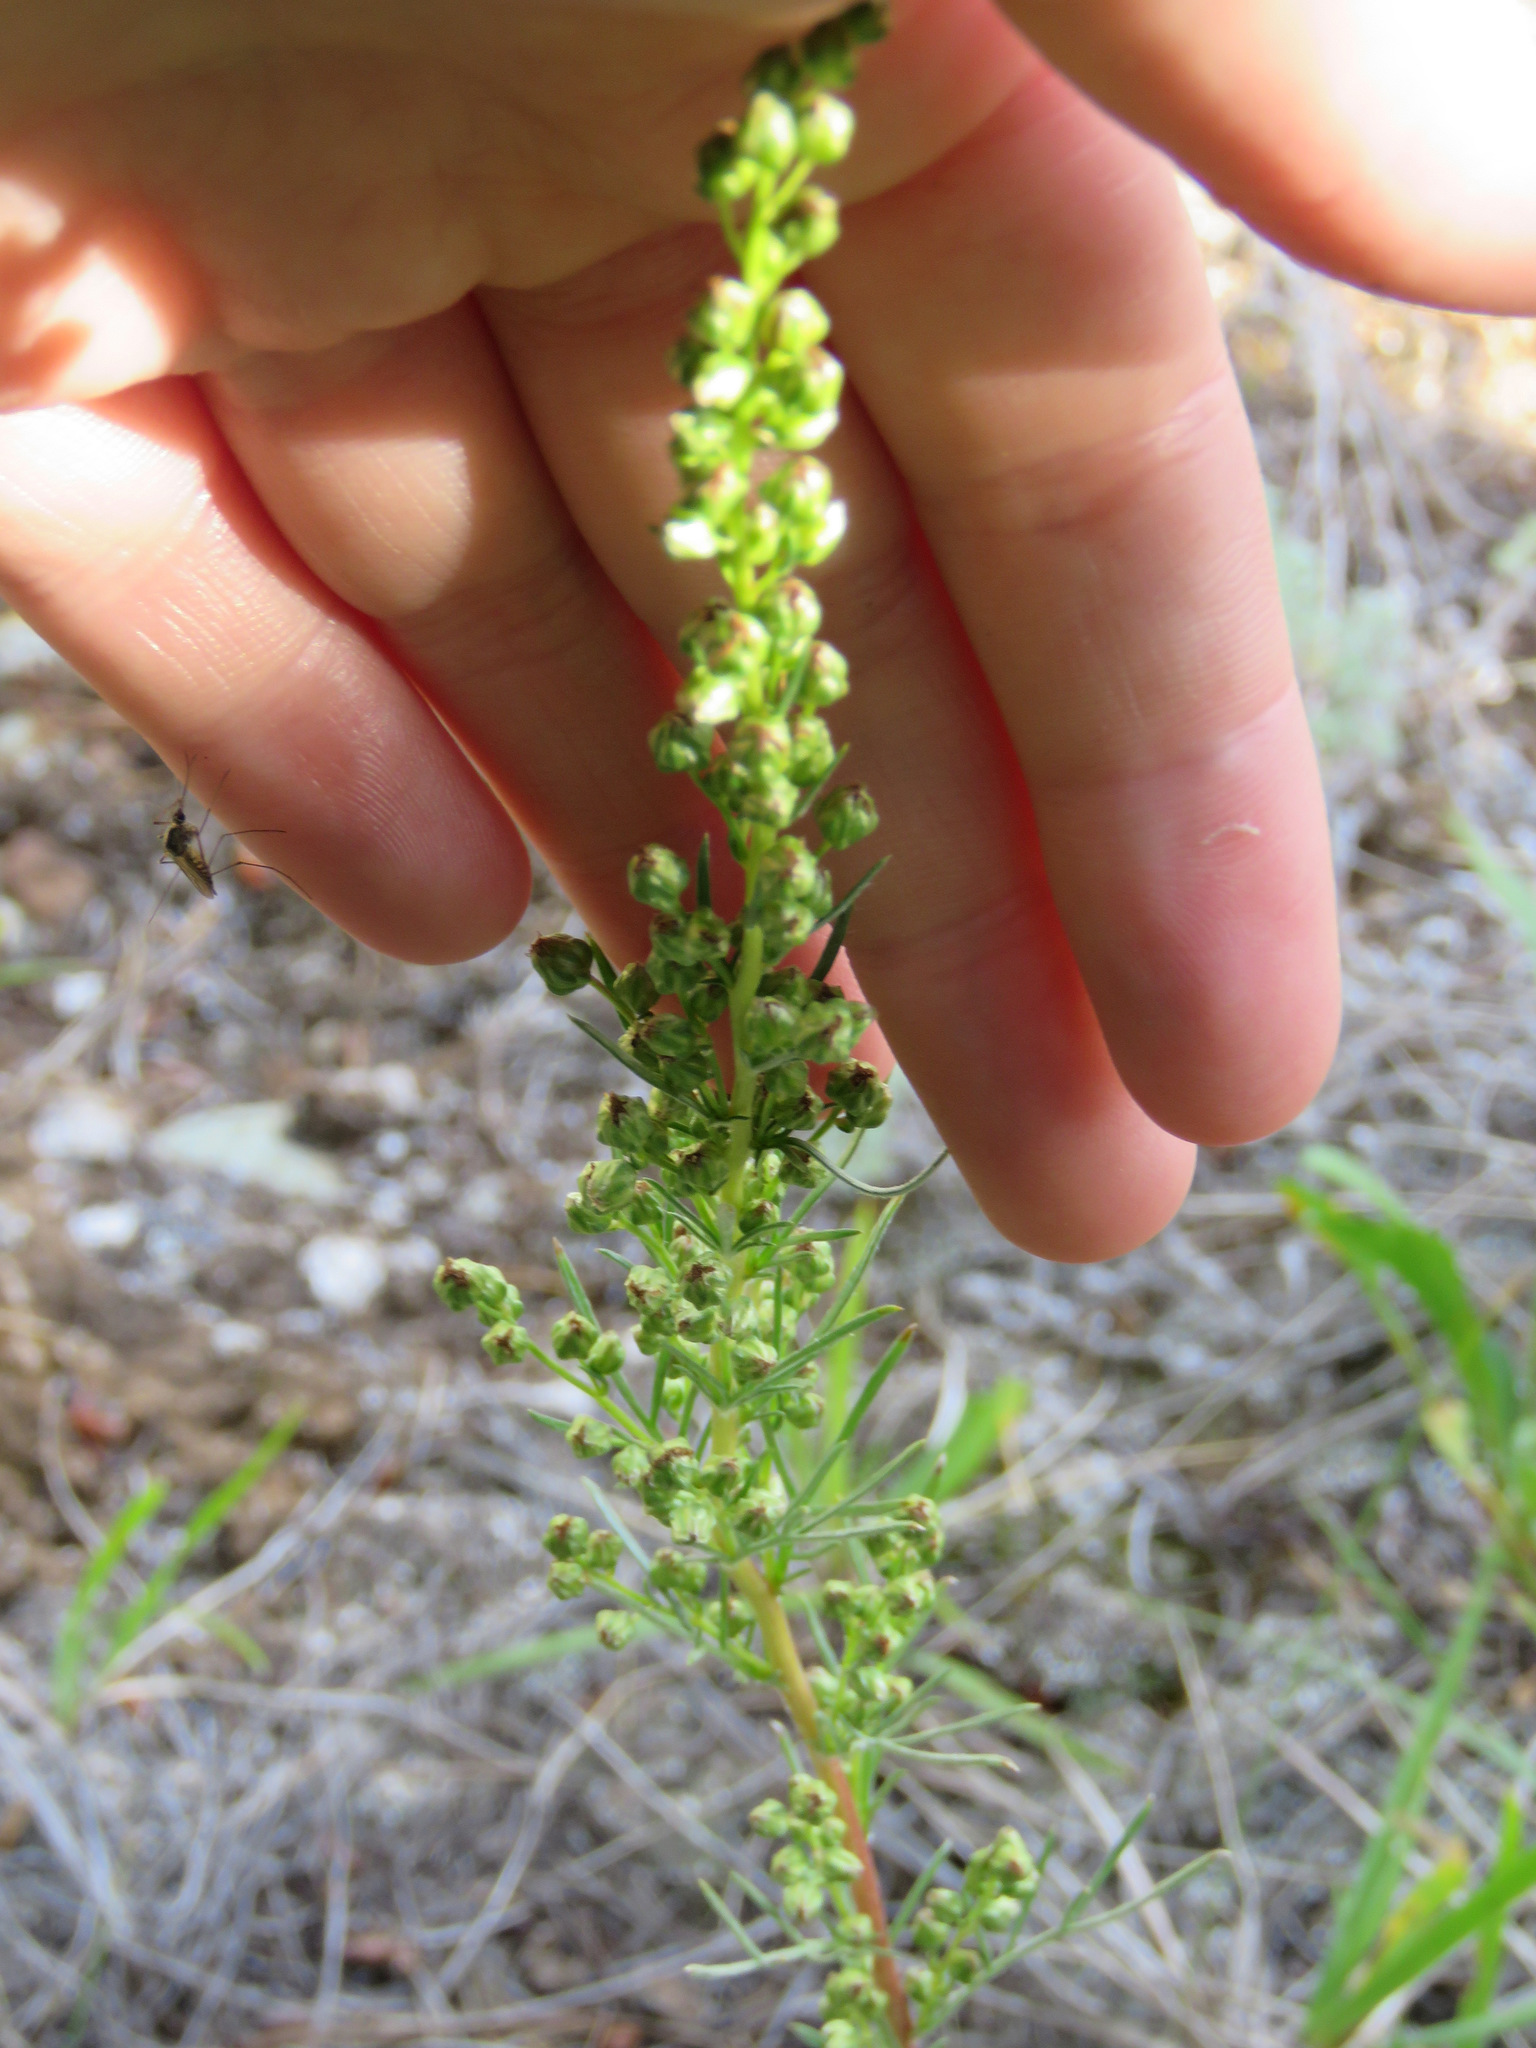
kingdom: Plantae
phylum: Tracheophyta
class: Magnoliopsida
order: Asterales
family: Asteraceae
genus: Artemisia
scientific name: Artemisia campestris
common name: Field wormwood
